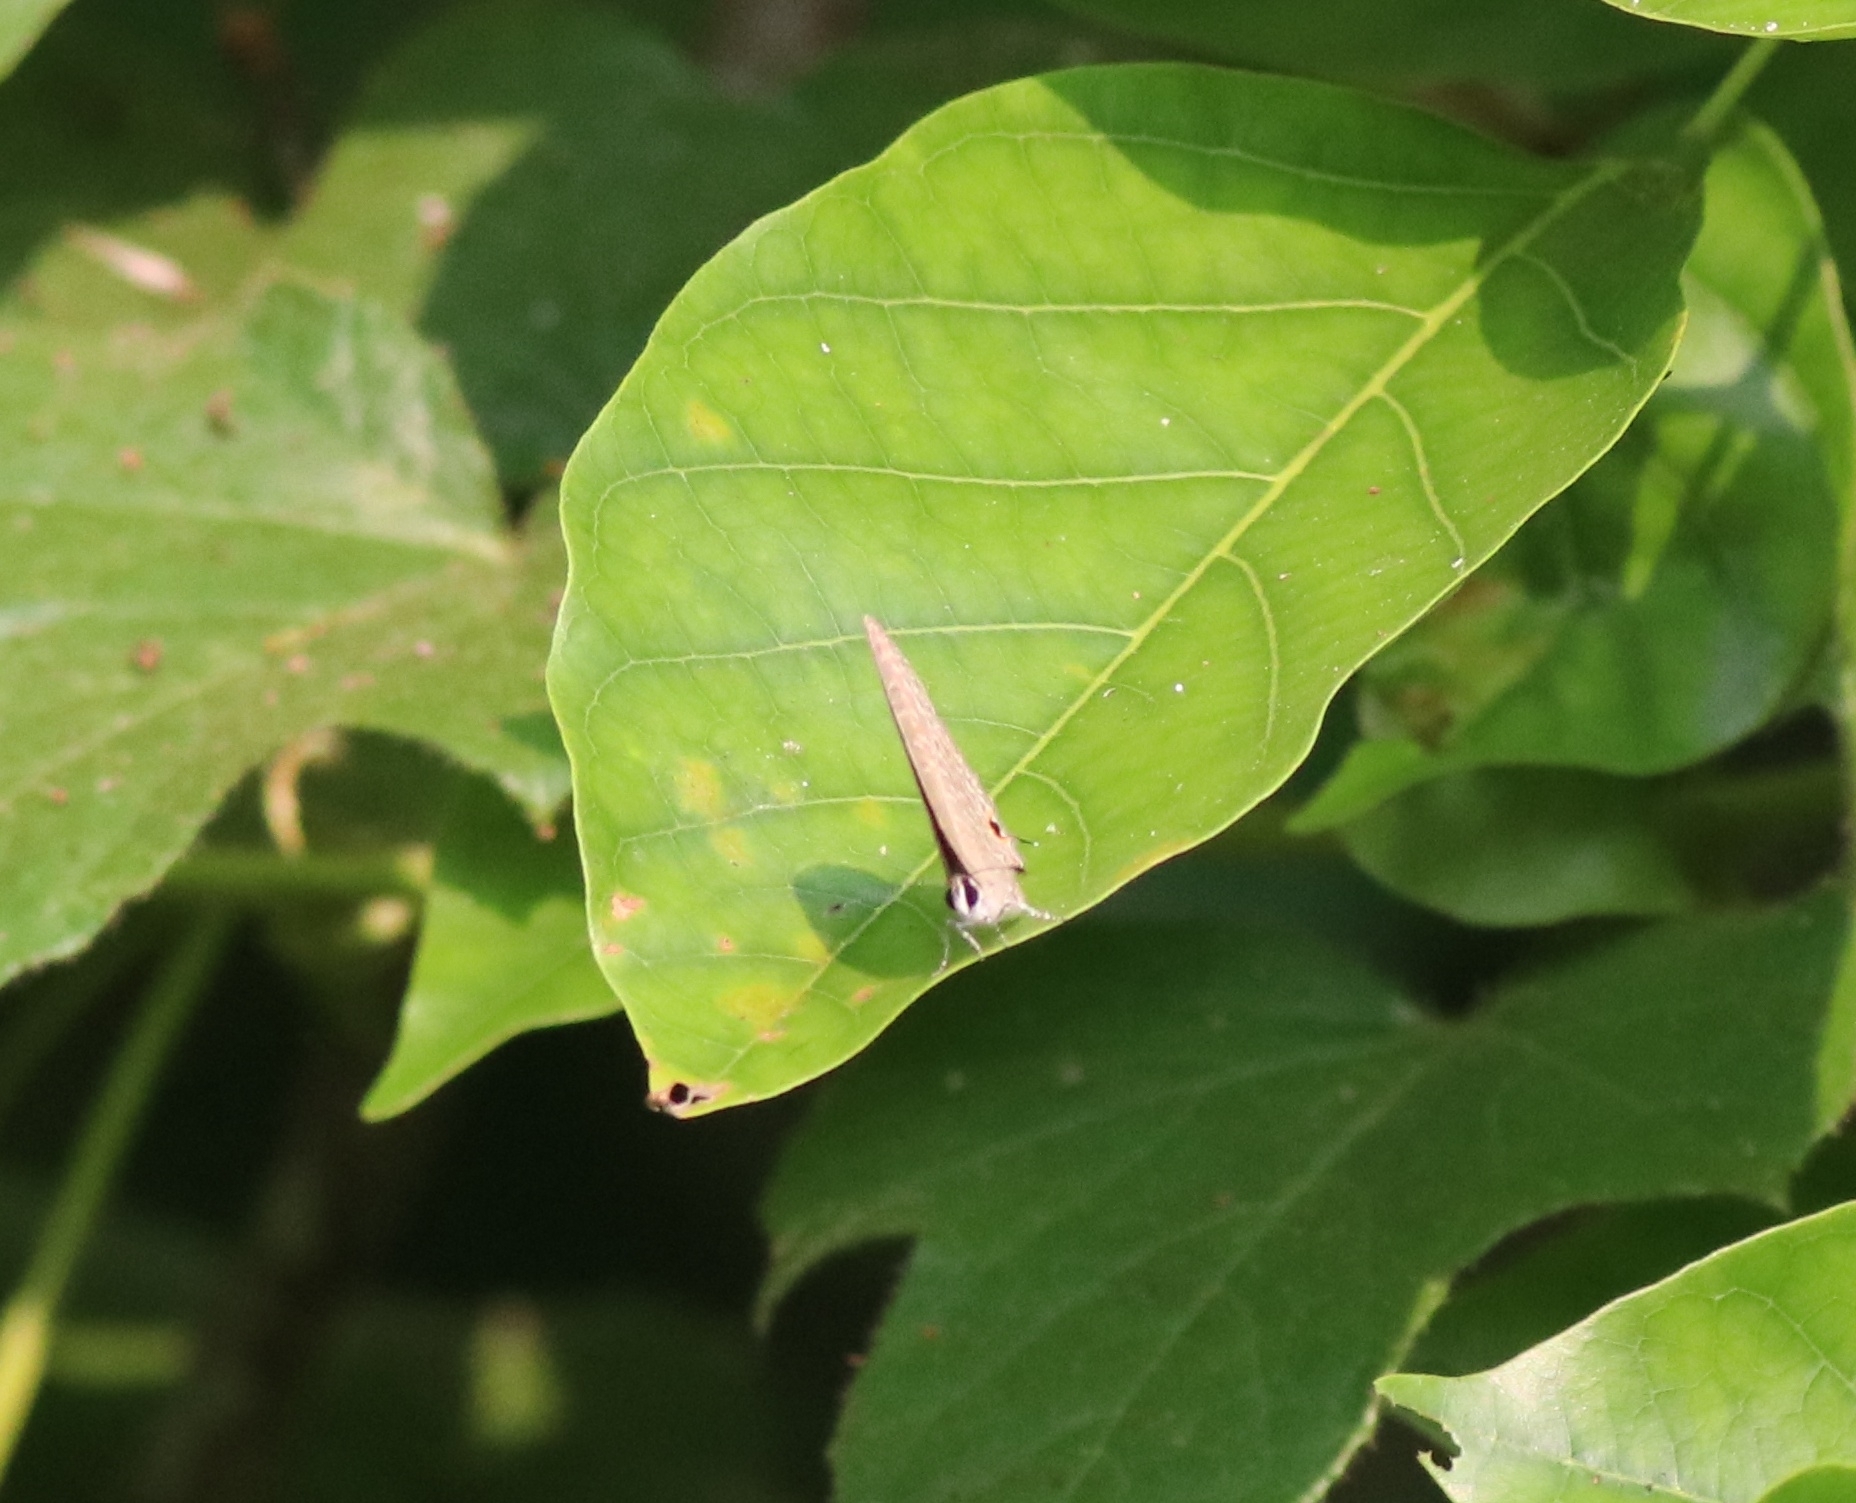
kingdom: Animalia
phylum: Arthropoda
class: Insecta
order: Lepidoptera
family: Lycaenidae
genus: Jamides
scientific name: Jamides bochus
